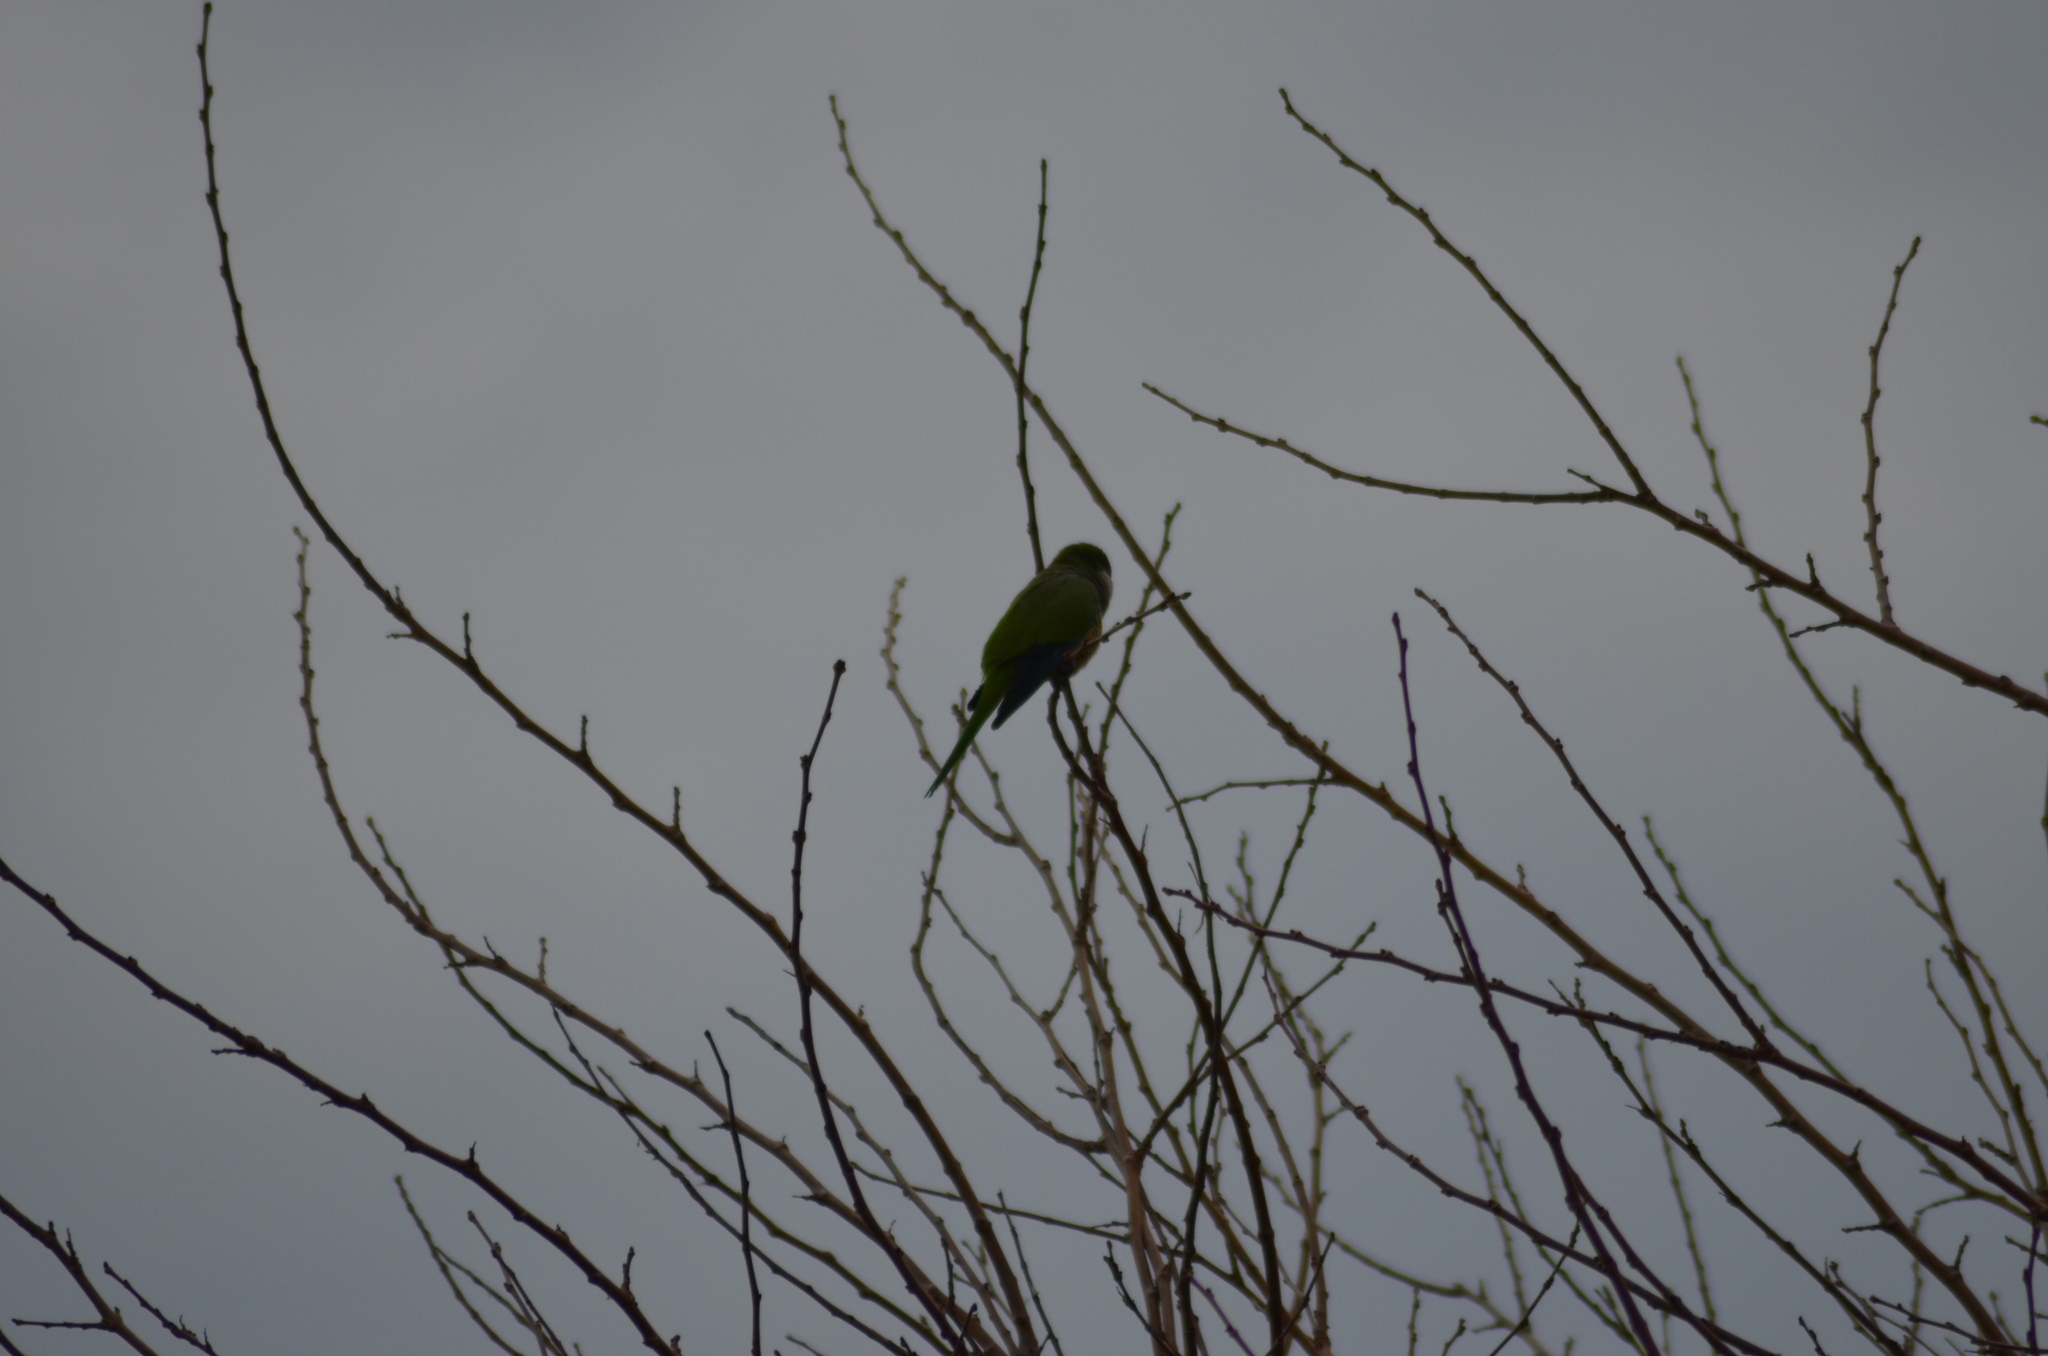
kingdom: Animalia
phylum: Chordata
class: Aves
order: Psittaciformes
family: Psittacidae
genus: Myiopsitta
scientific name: Myiopsitta monachus
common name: Monk parakeet
